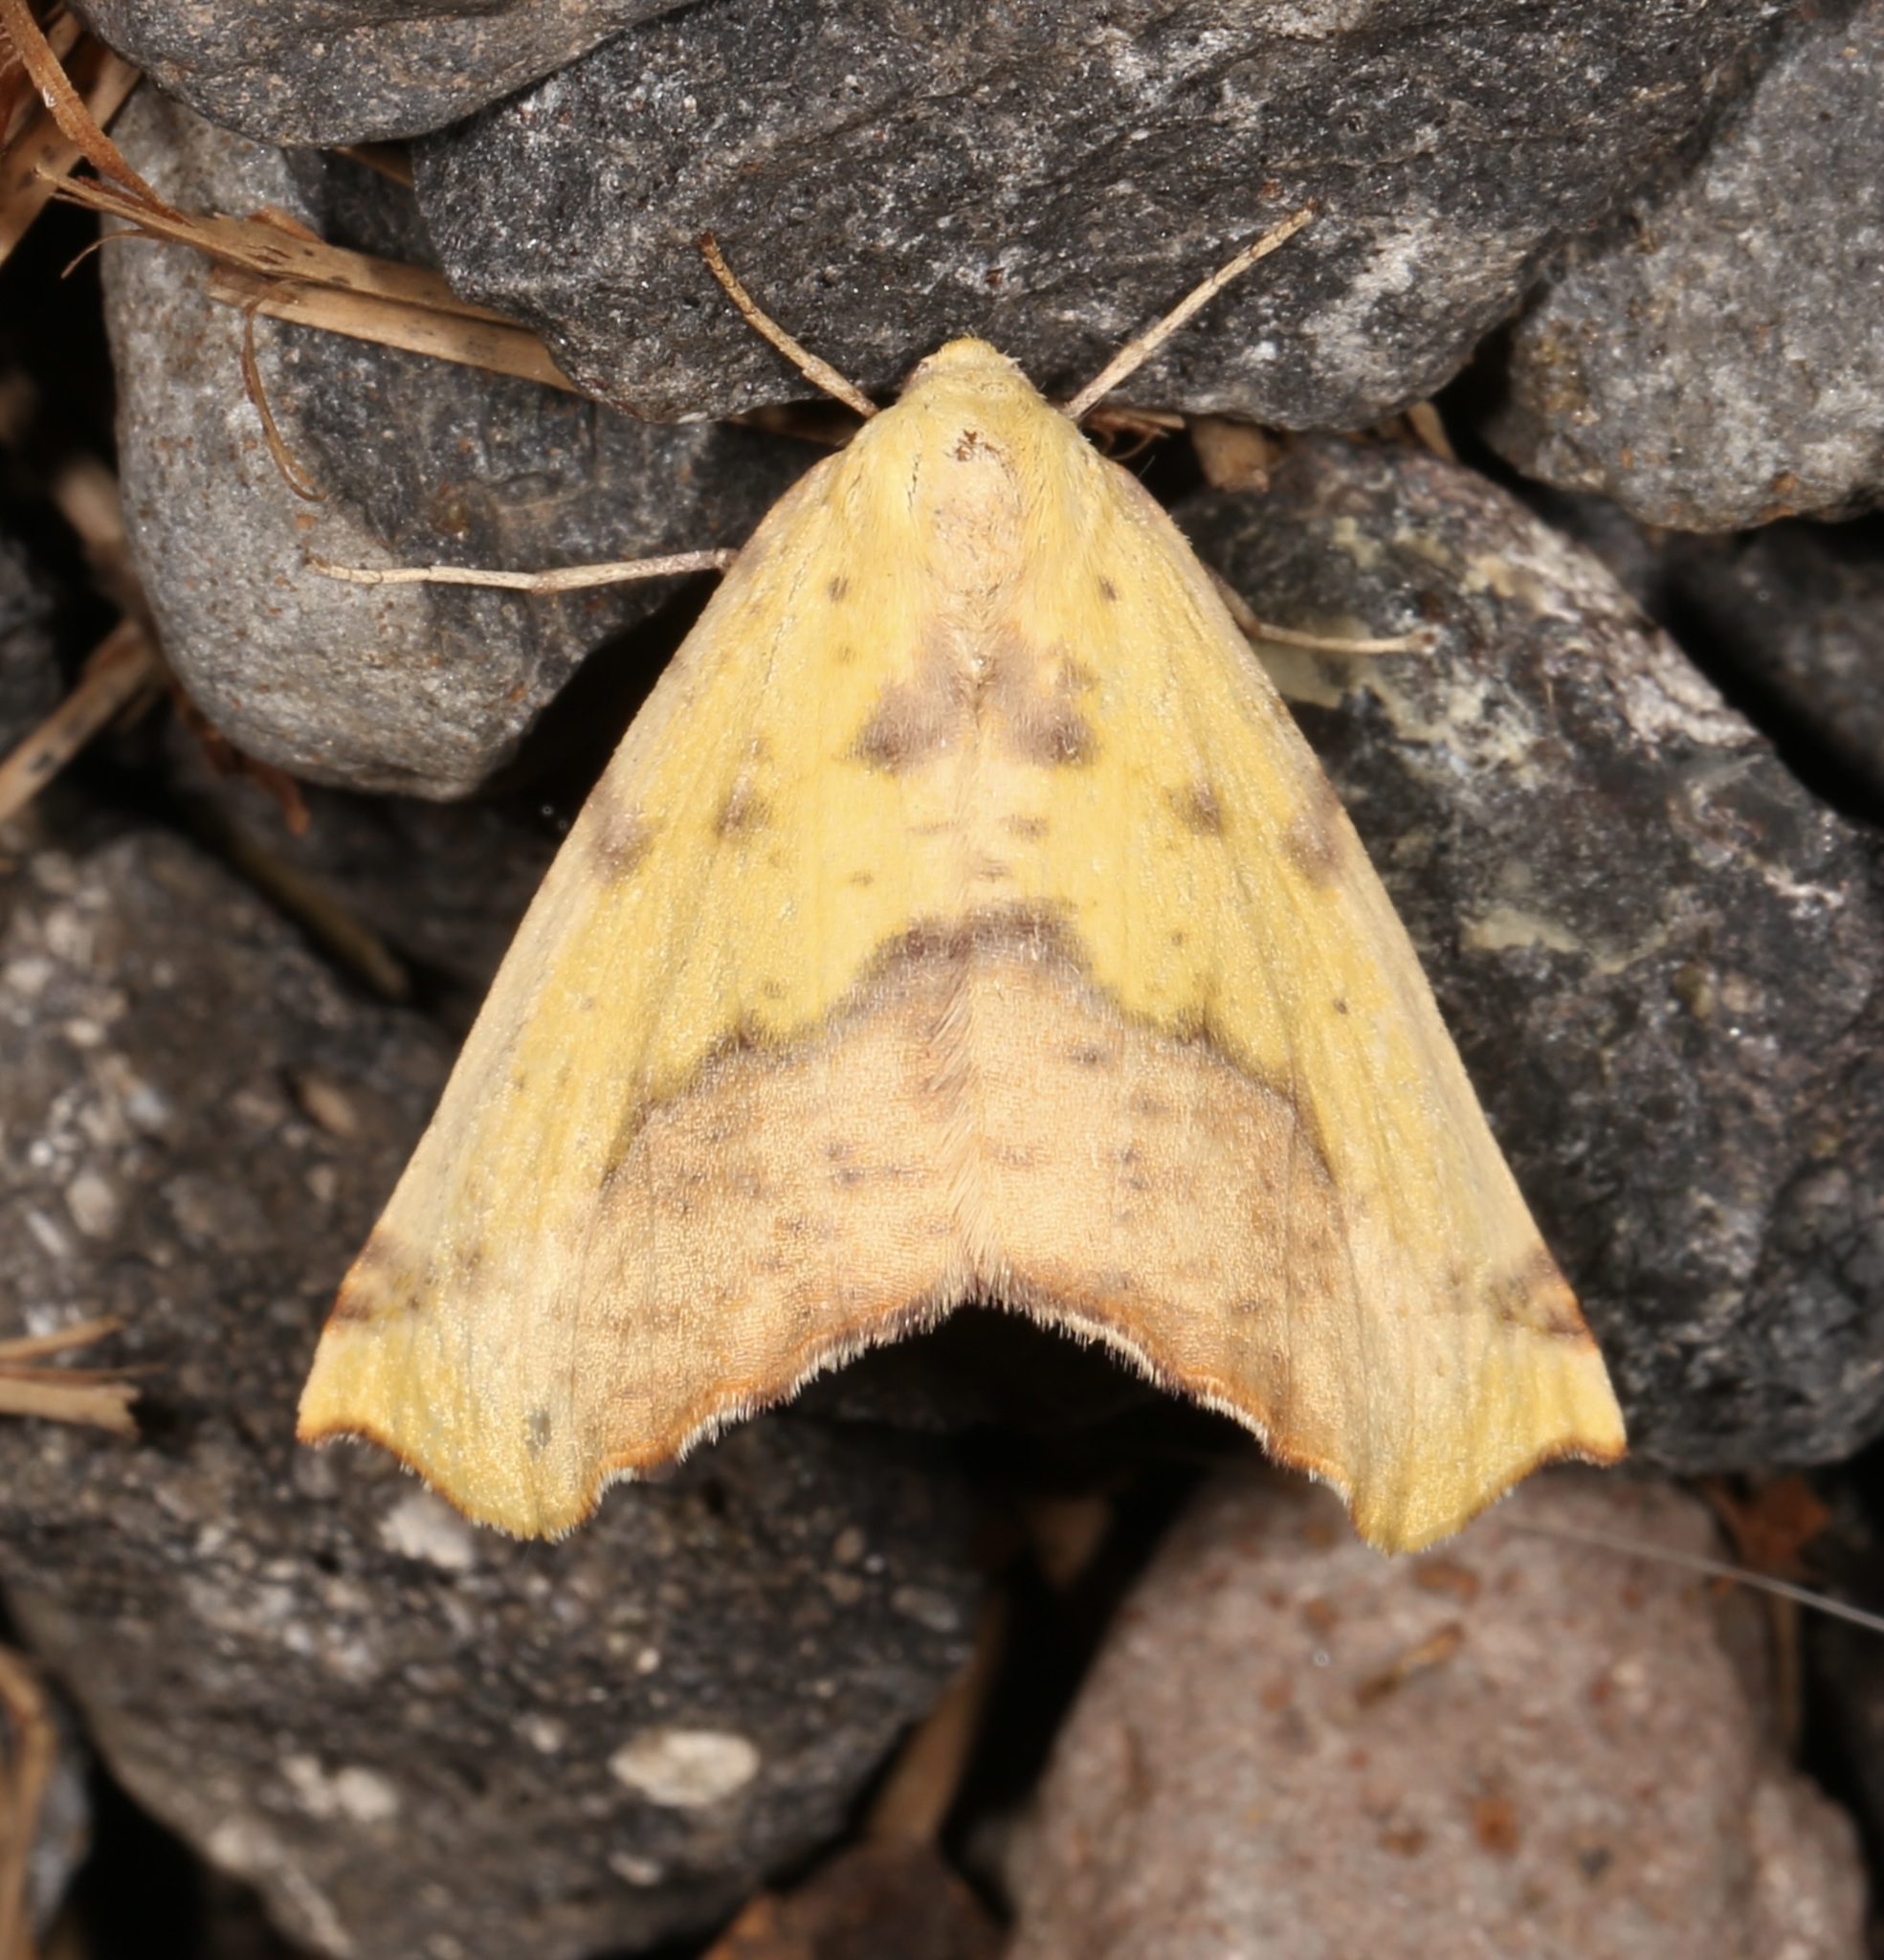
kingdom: Animalia
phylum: Arthropoda
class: Insecta
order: Lepidoptera
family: Geometridae
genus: Sicya
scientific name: Sicya macularia
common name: Sharp-lined yellow
